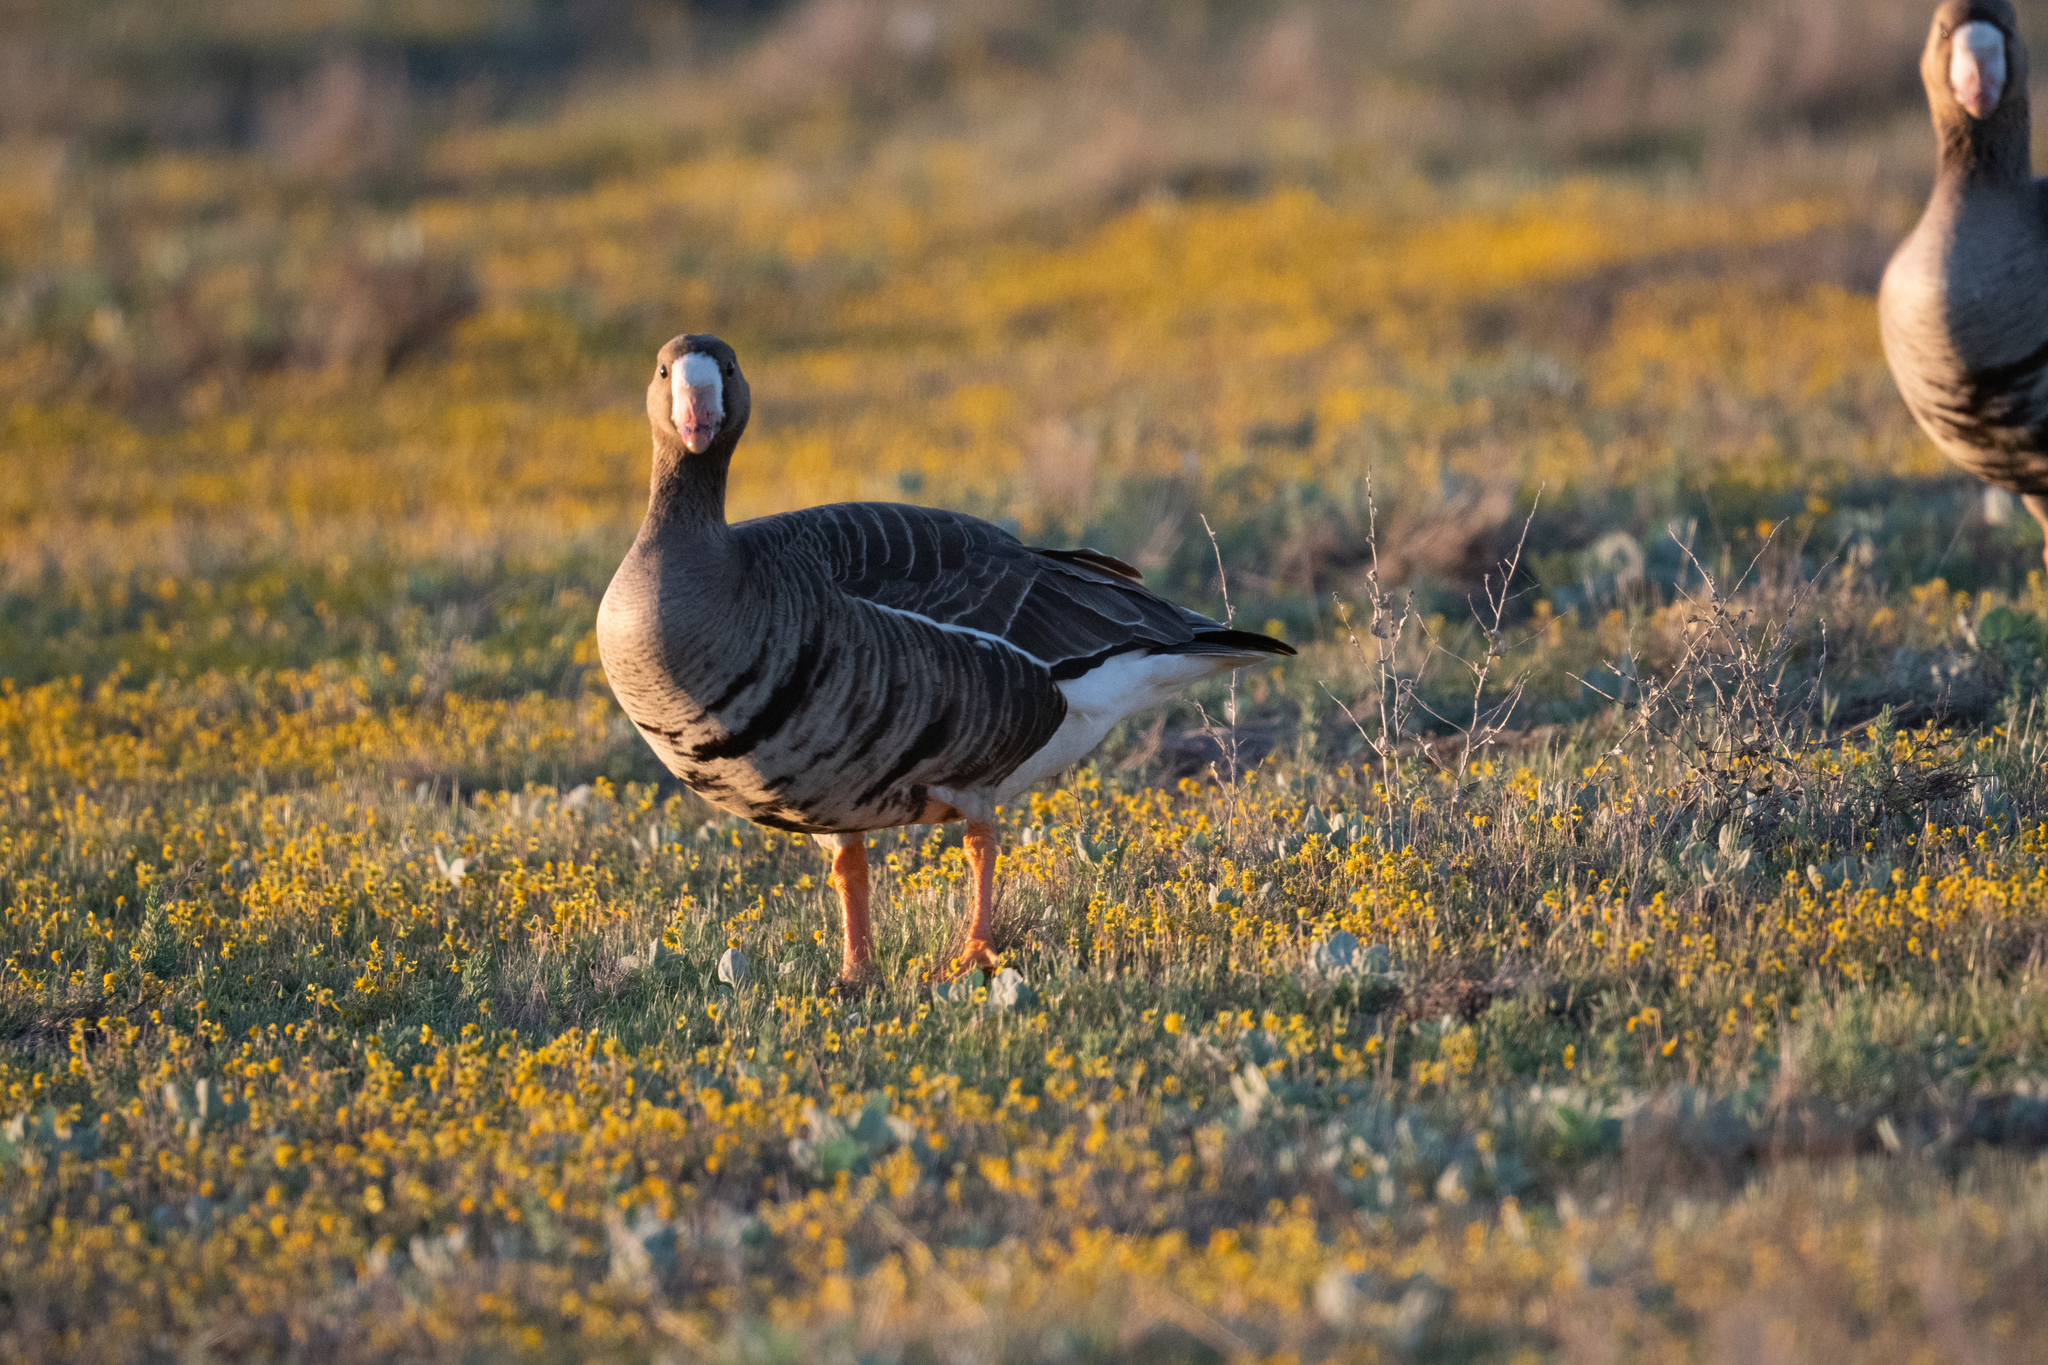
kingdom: Animalia
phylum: Chordata
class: Aves
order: Anseriformes
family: Anatidae
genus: Anser
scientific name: Anser albifrons
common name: Greater white-fronted goose
